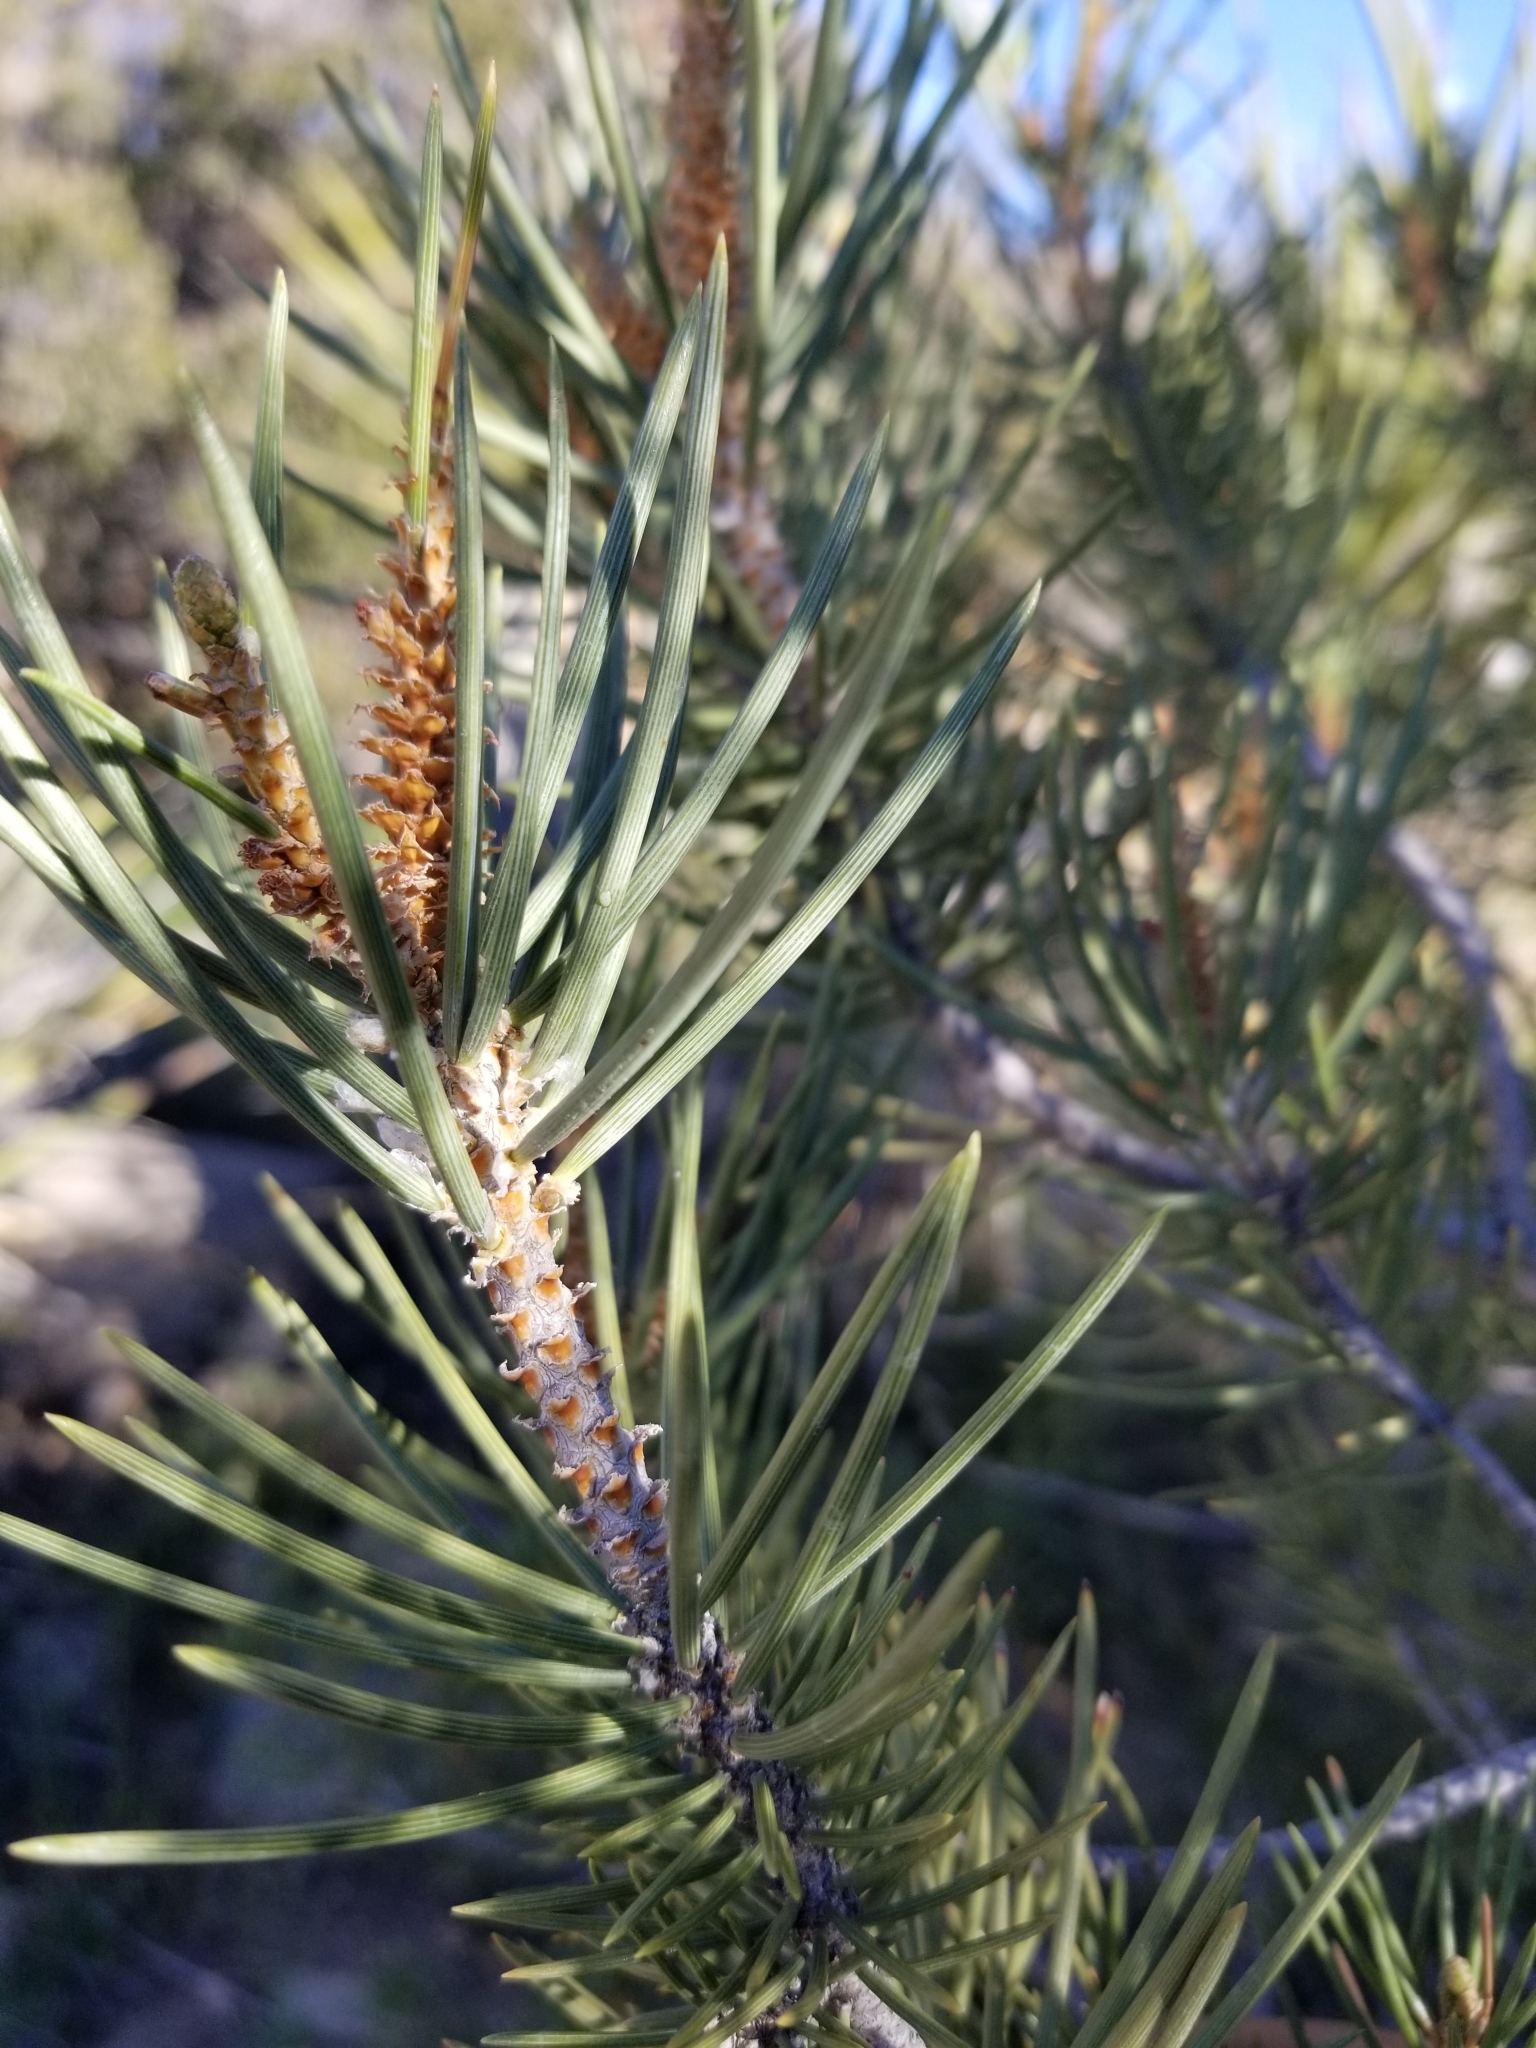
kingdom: Plantae
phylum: Tracheophyta
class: Pinopsida
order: Pinales
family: Pinaceae
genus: Pinus
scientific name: Pinus monophylla
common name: One-leaved nut pine
